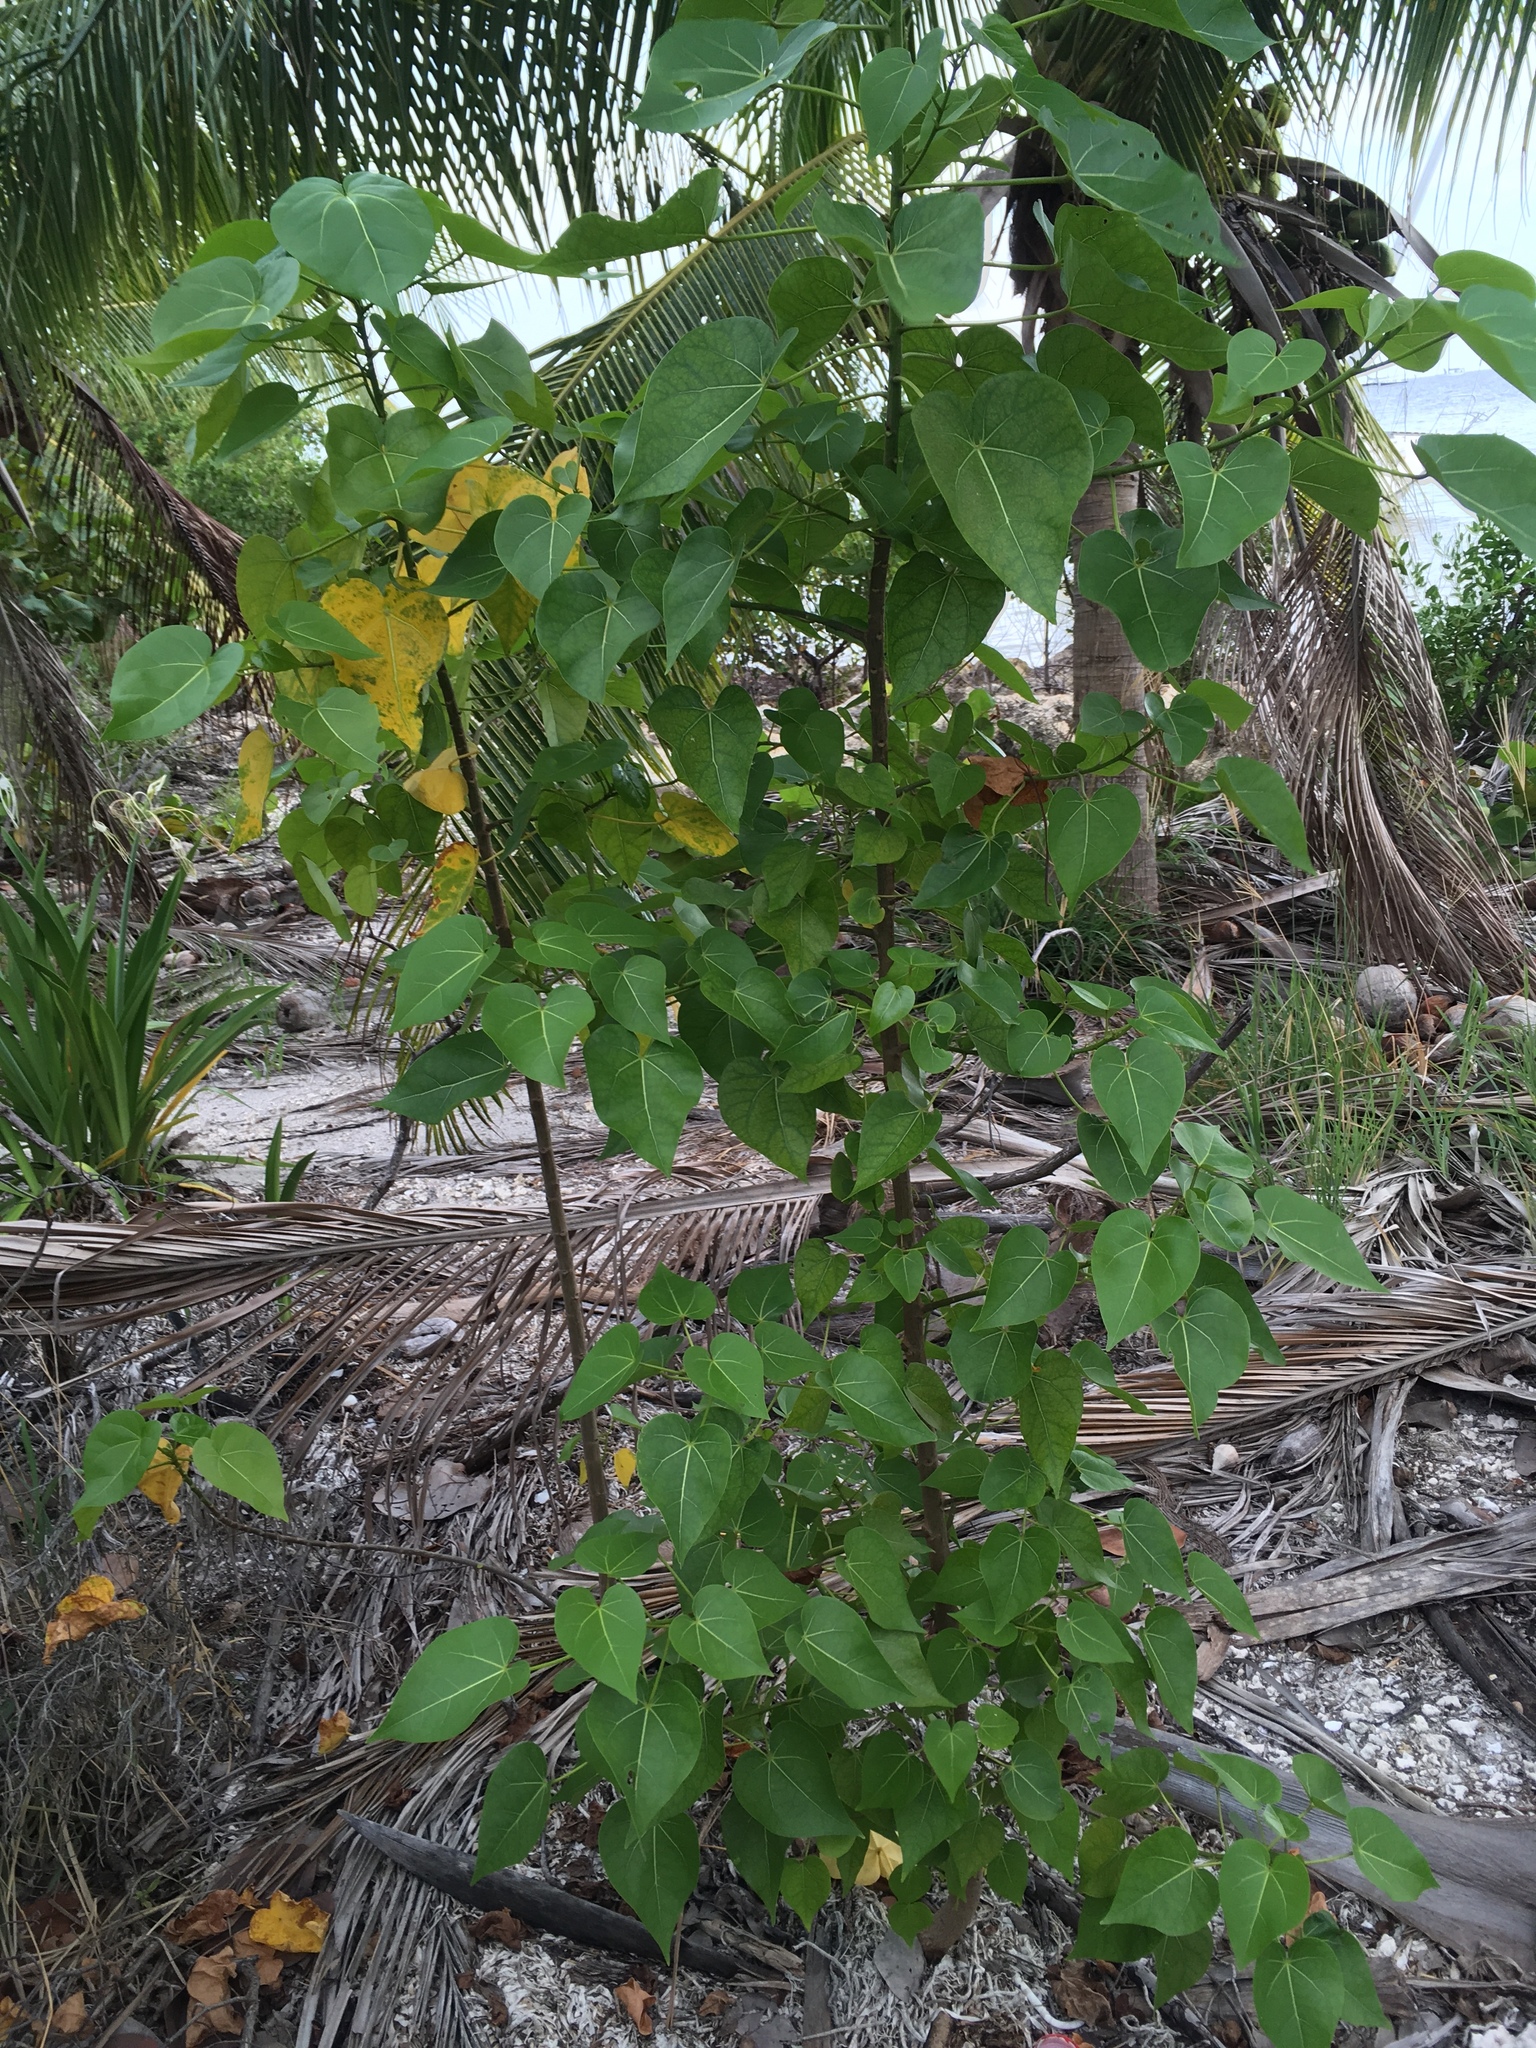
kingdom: Plantae
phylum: Tracheophyta
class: Magnoliopsida
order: Malvales
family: Malvaceae
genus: Thespesia
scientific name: Thespesia populnea
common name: Seaside mahoe
